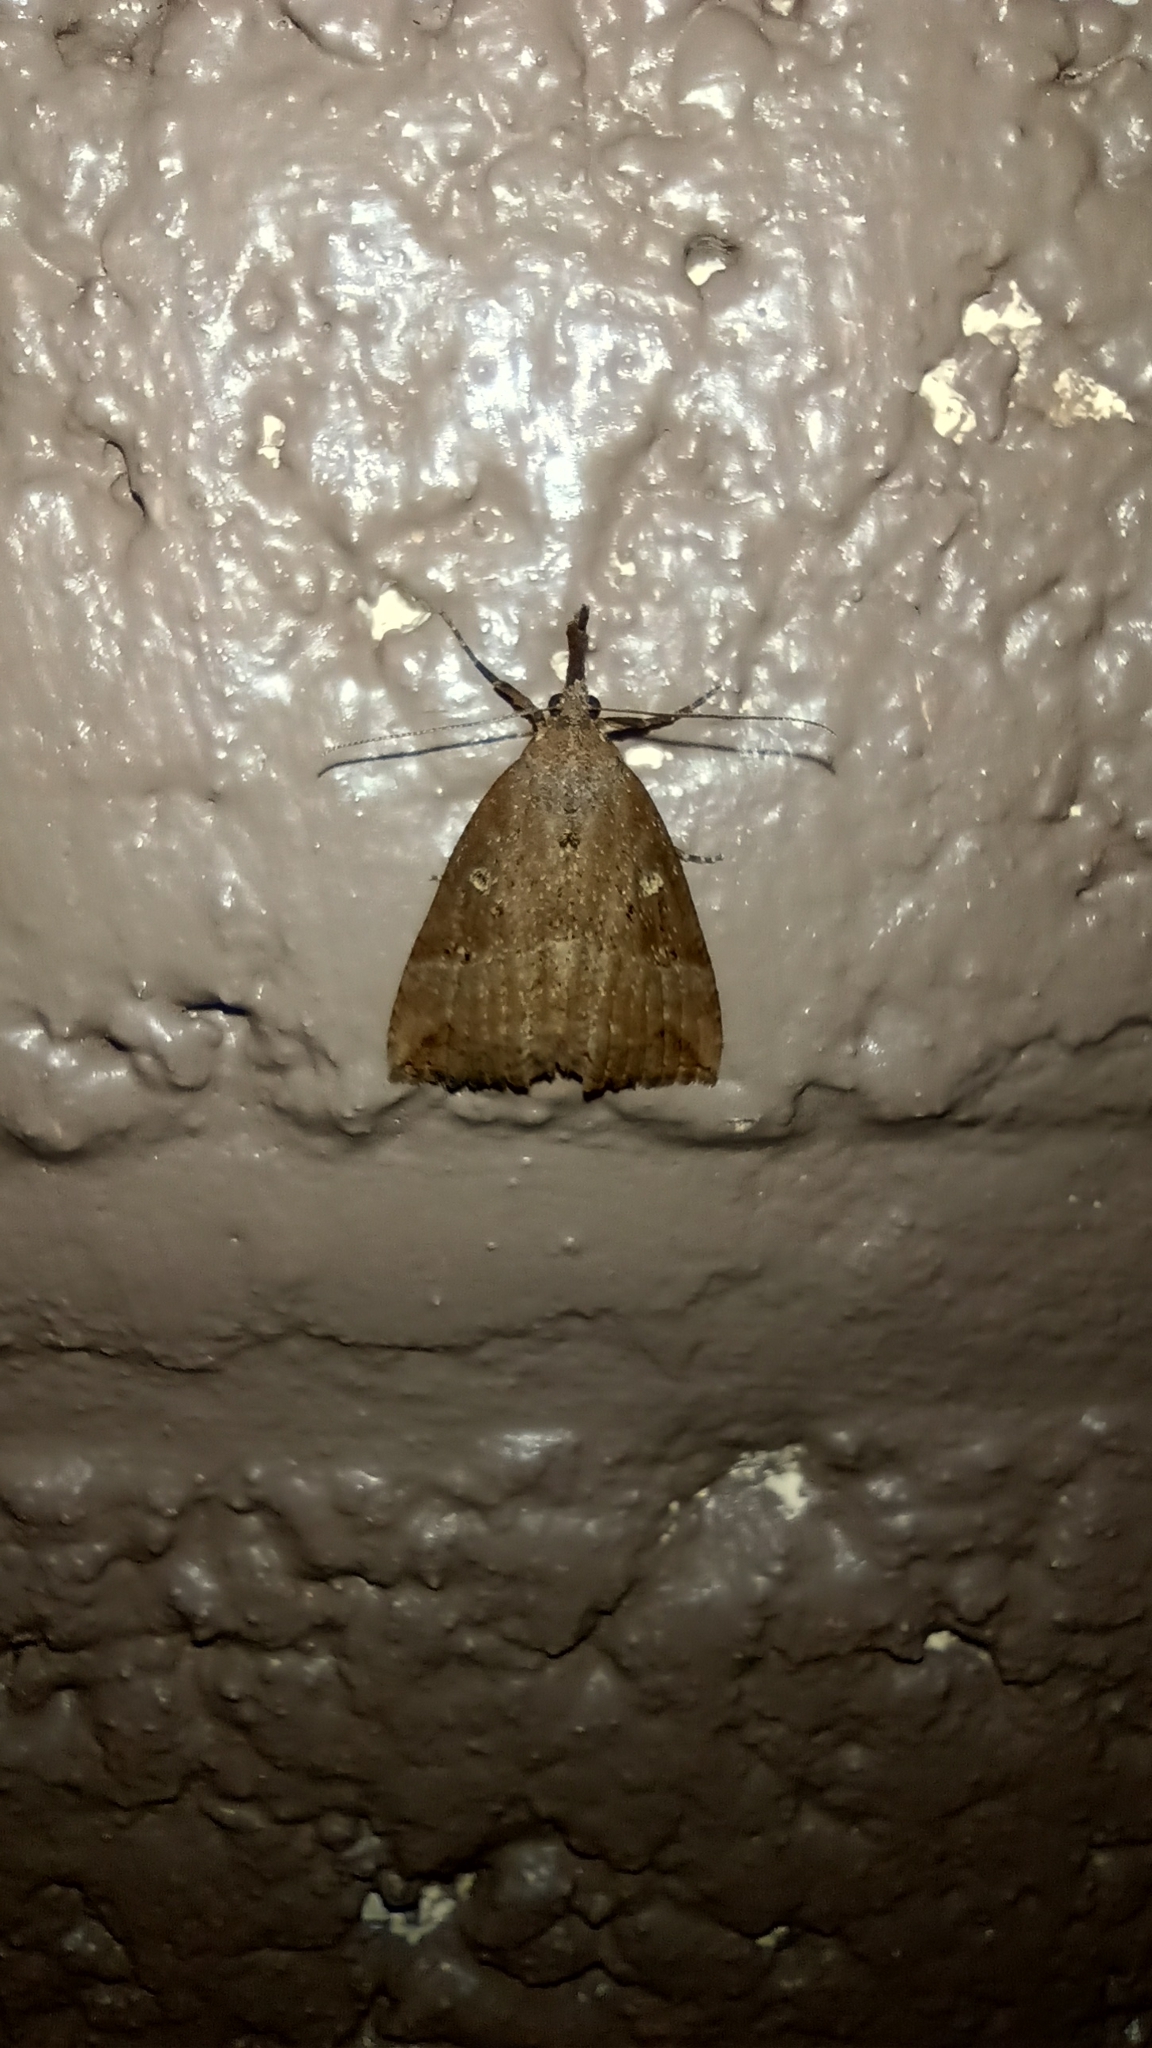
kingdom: Animalia
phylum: Arthropoda
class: Insecta
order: Lepidoptera
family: Erebidae
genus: Hypena
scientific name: Hypena rostralis
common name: Buttoned snout
